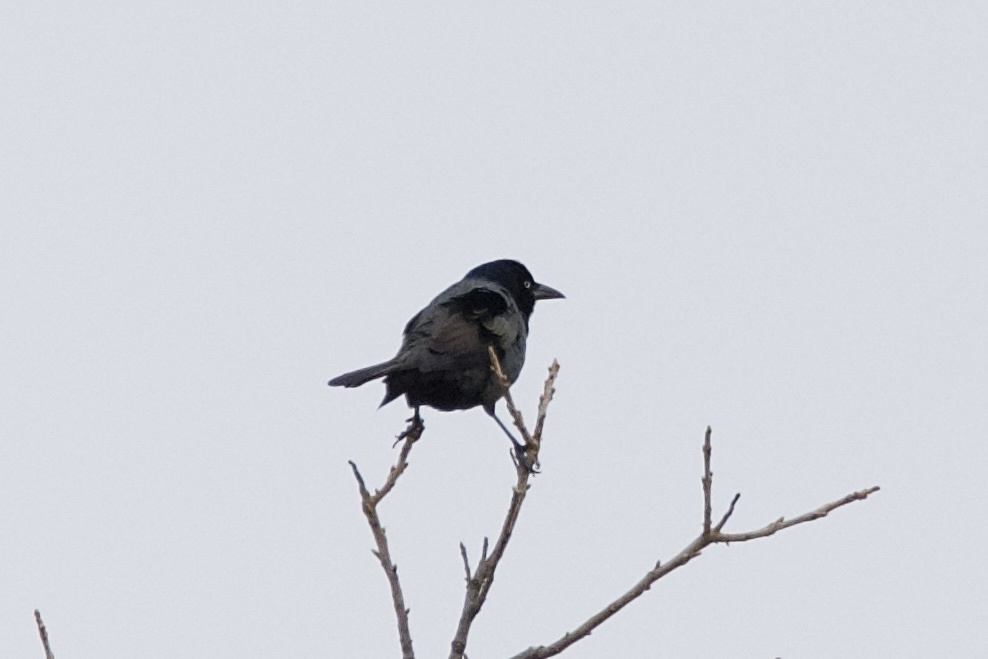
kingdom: Animalia
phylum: Chordata
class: Aves
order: Passeriformes
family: Icteridae
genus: Quiscalus
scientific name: Quiscalus quiscula
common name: Common grackle
